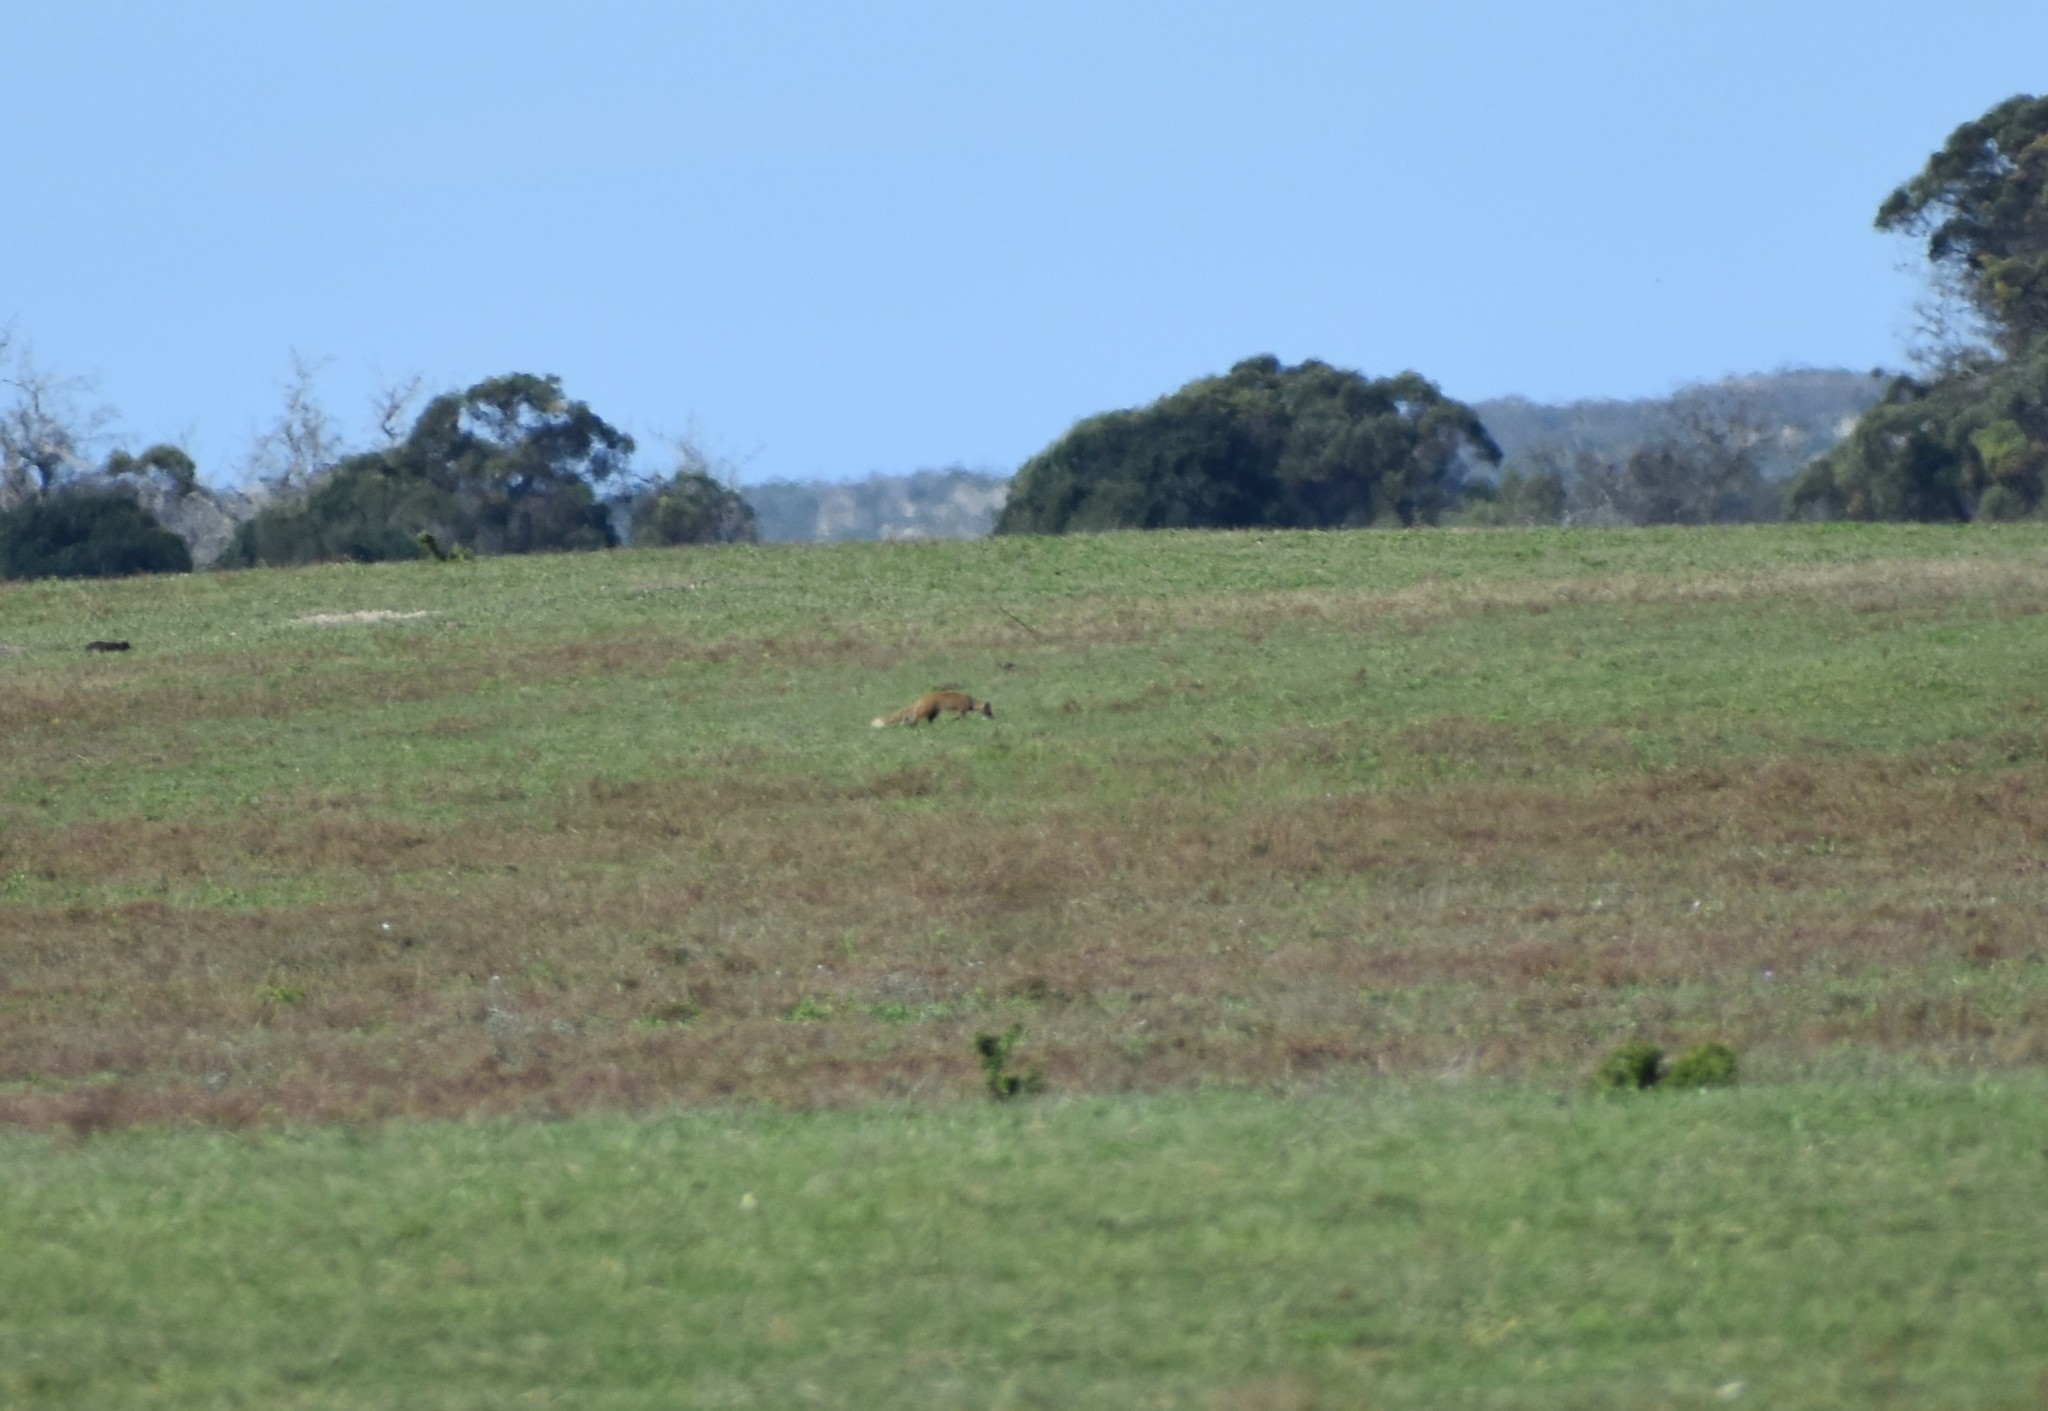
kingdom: Animalia
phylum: Chordata
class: Mammalia
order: Carnivora
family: Herpestidae
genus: Cynictis
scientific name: Cynictis penicillata
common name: Yellow mongoose
